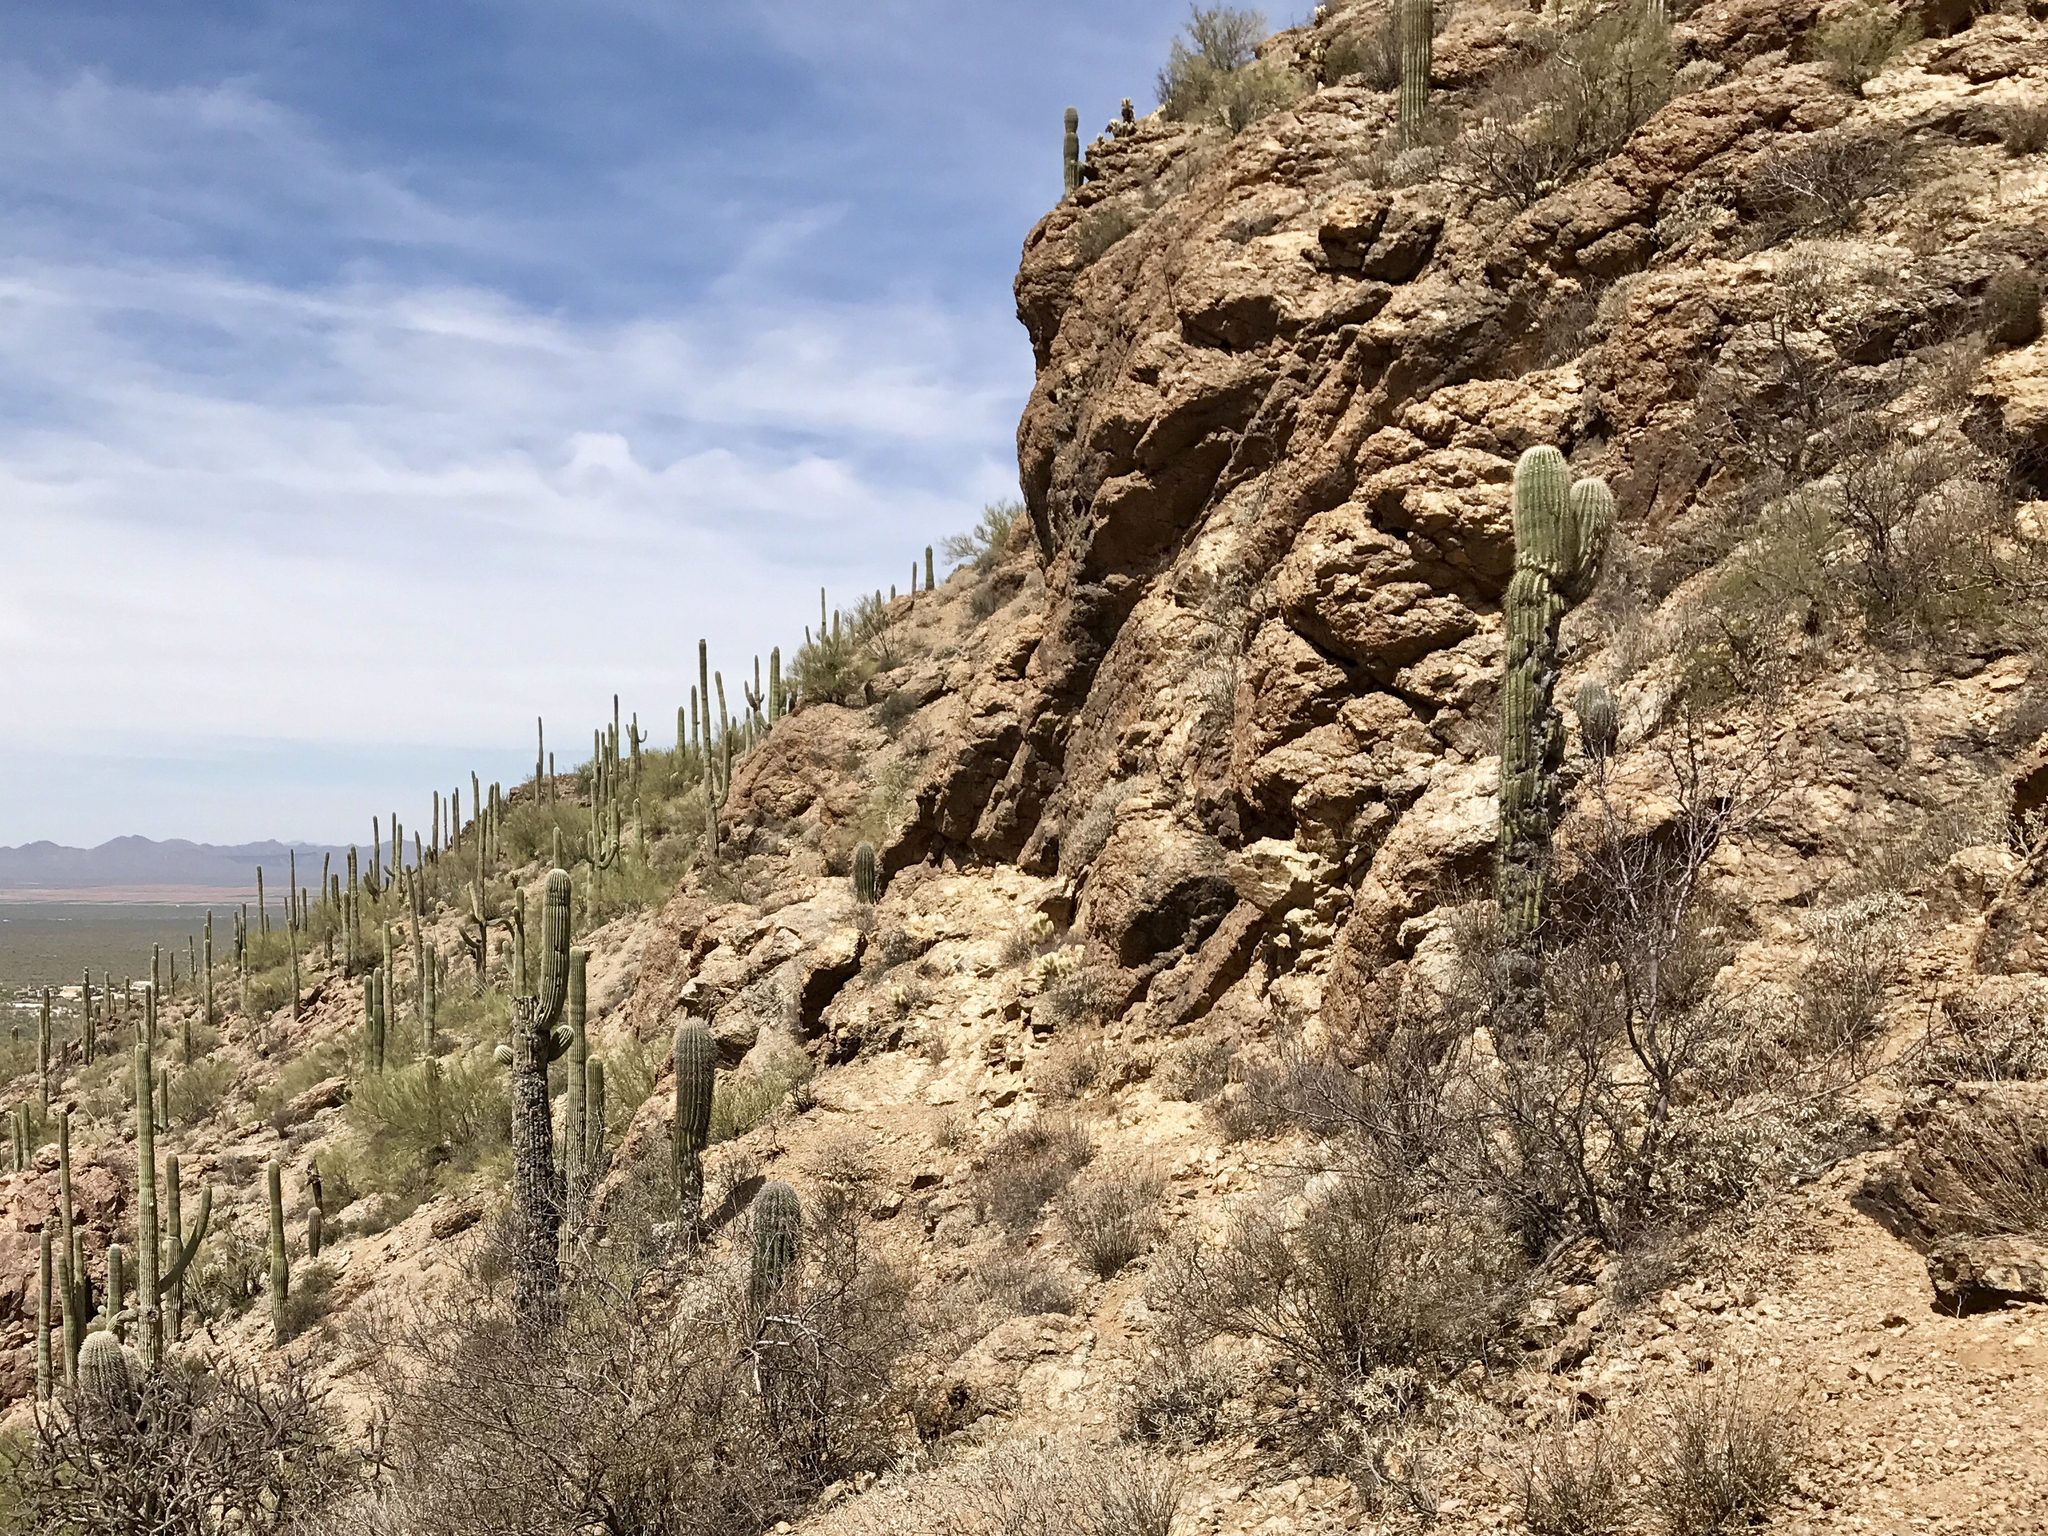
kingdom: Plantae
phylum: Tracheophyta
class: Magnoliopsida
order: Caryophyllales
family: Cactaceae
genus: Carnegiea
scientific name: Carnegiea gigantea
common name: Saguaro
